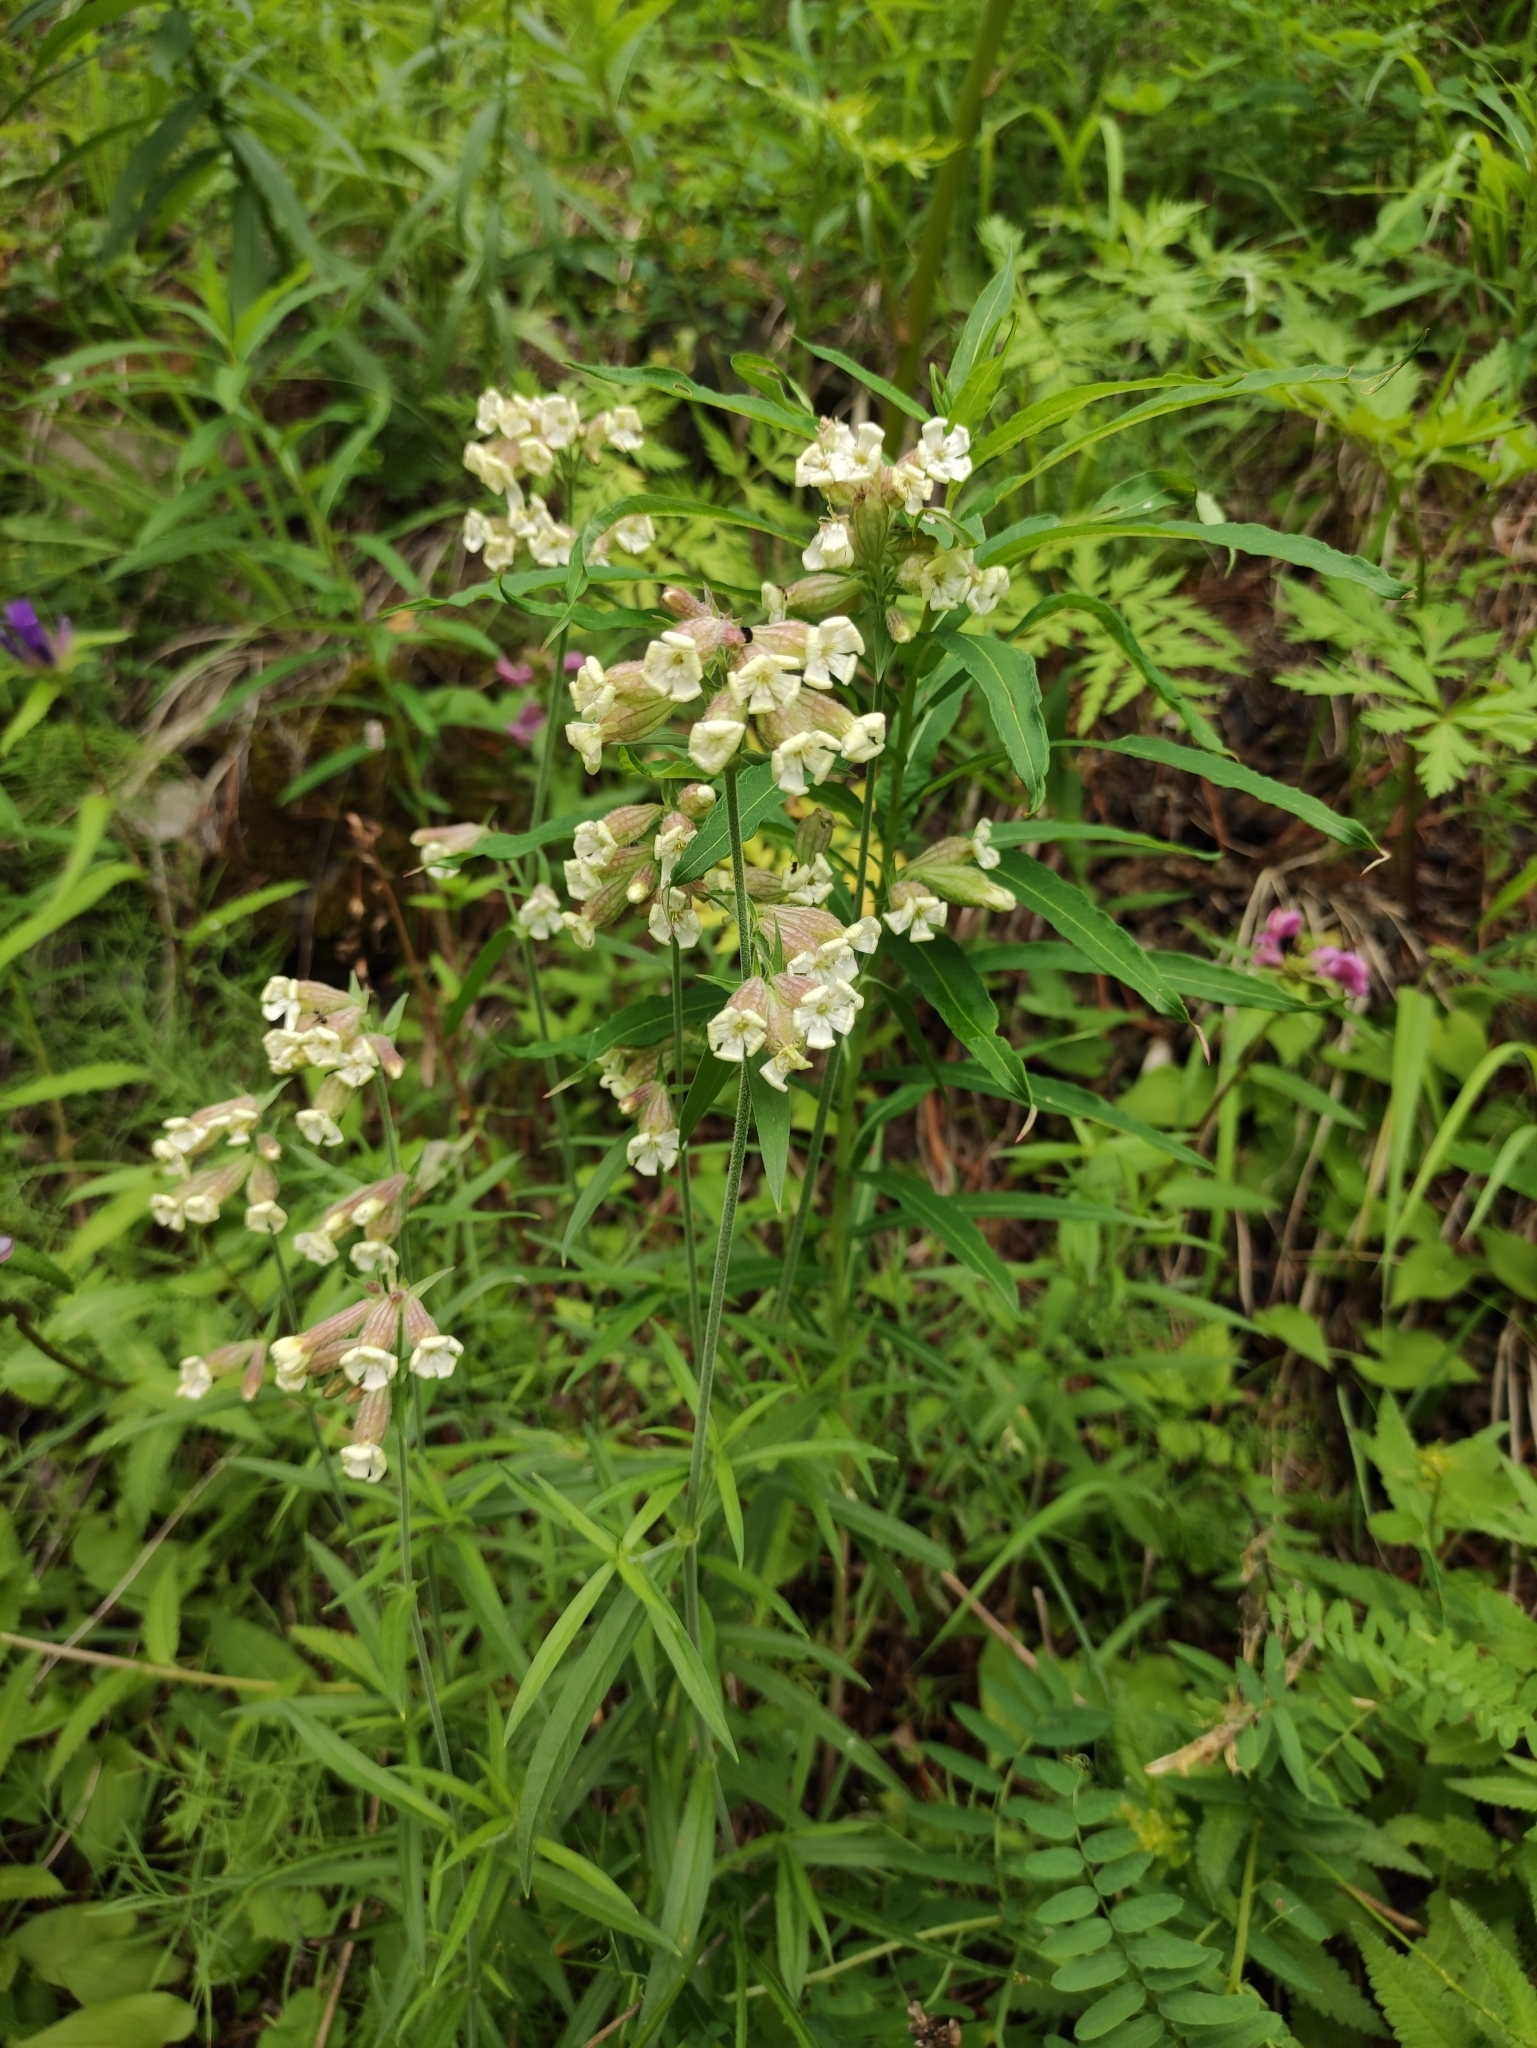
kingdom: Plantae
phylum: Tracheophyta
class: Magnoliopsida
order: Caryophyllales
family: Caryophyllaceae
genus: Silene
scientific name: Silene amoena
